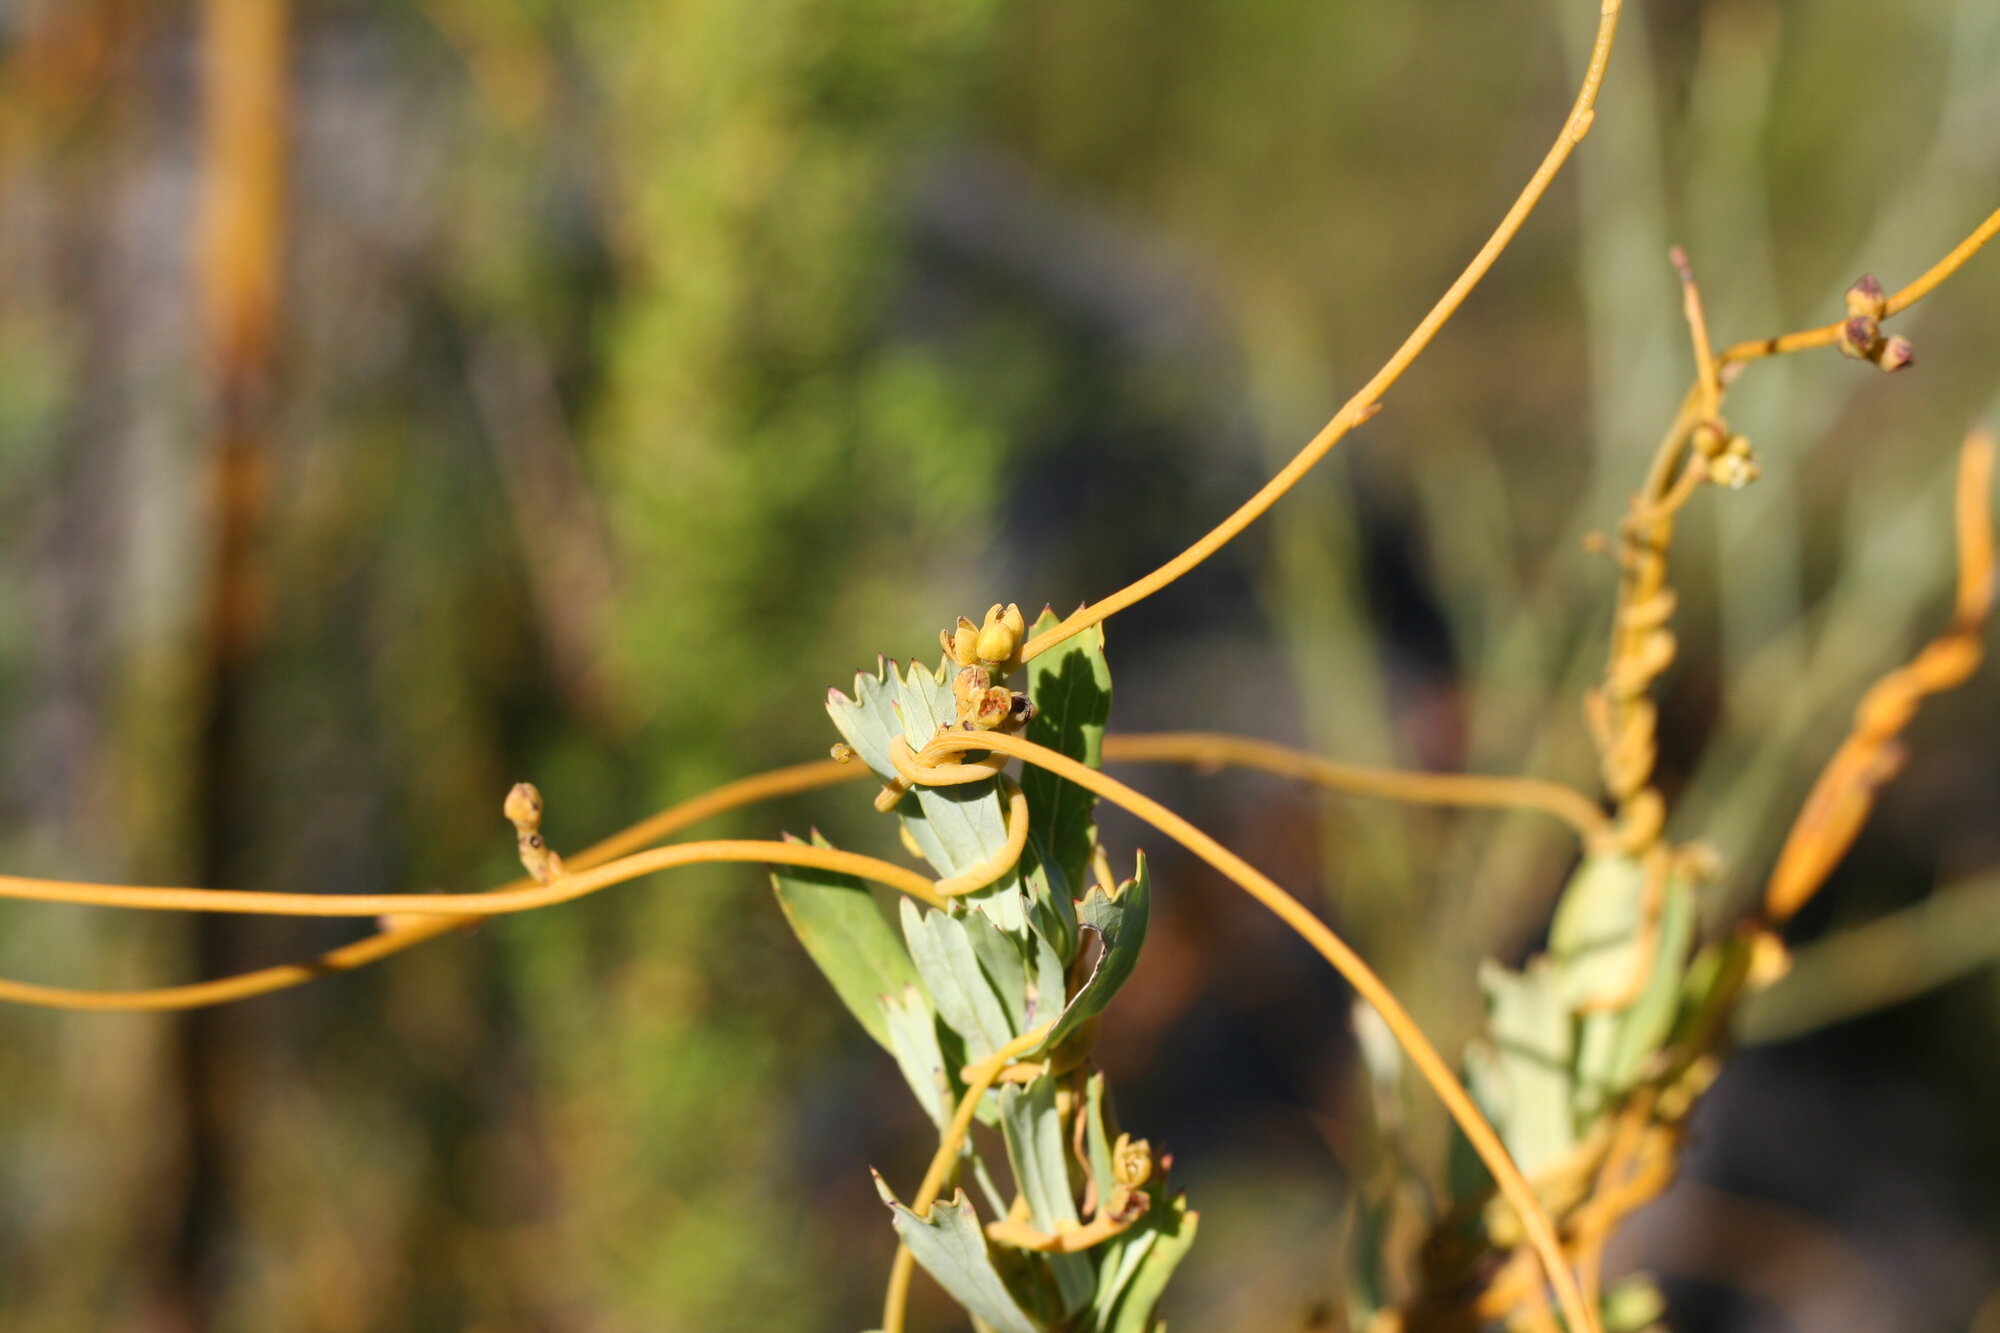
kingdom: Plantae
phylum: Tracheophyta
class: Magnoliopsida
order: Laurales
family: Lauraceae
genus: Cassytha
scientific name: Cassytha ciliolata
